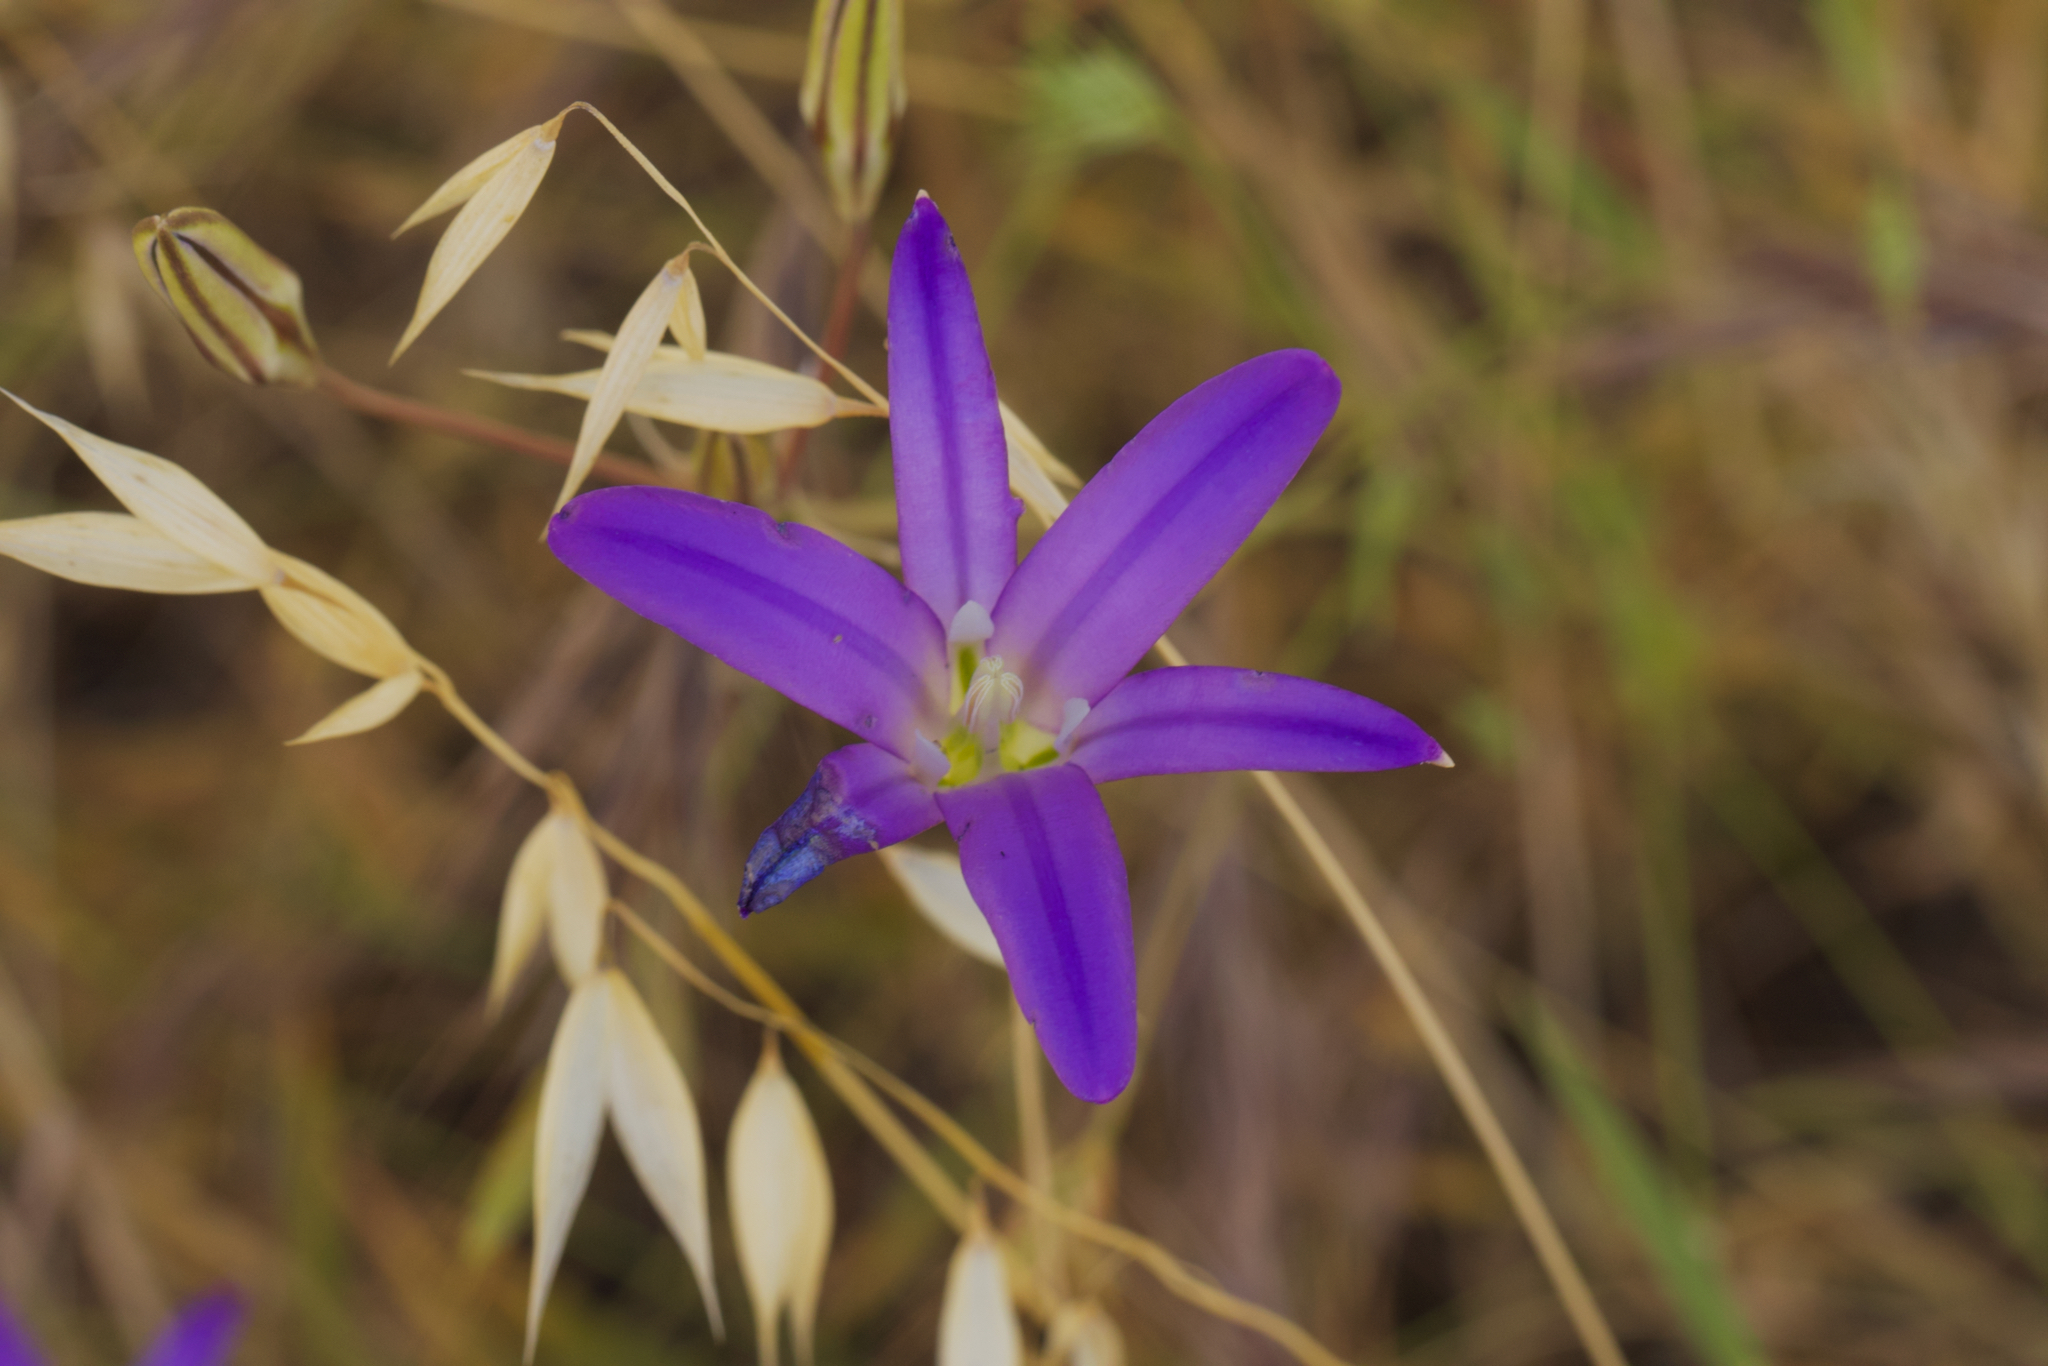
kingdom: Plantae
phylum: Tracheophyta
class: Liliopsida
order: Asparagales
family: Asparagaceae
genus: Brodiaea
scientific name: Brodiaea elegans
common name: Elegant cluster-lily
